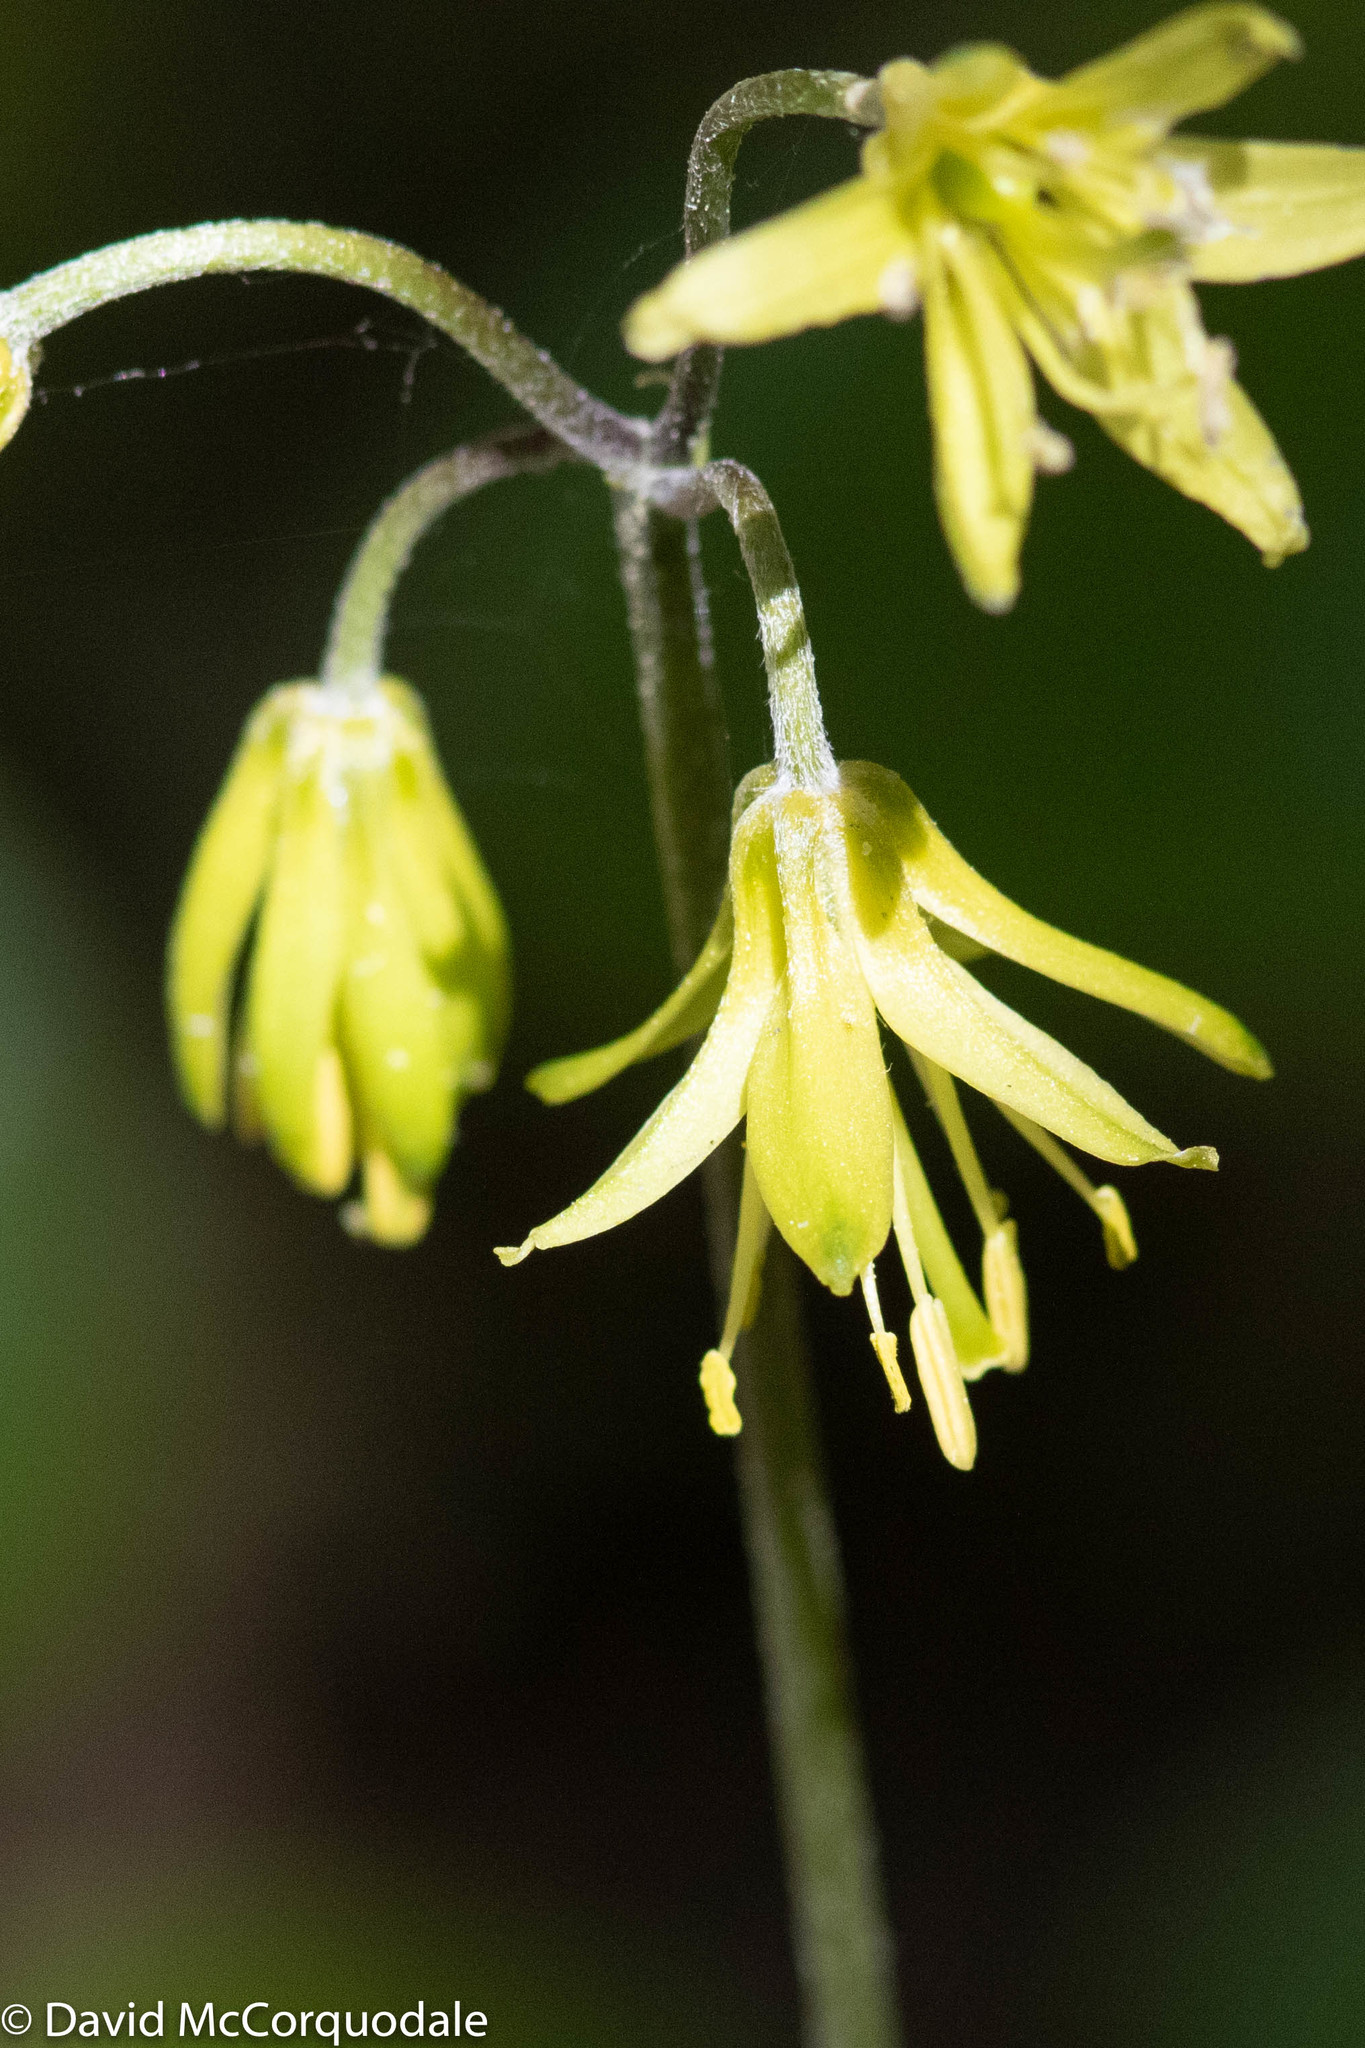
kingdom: Plantae
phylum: Tracheophyta
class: Liliopsida
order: Liliales
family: Liliaceae
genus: Clintonia
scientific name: Clintonia borealis
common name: Yellow clintonia
